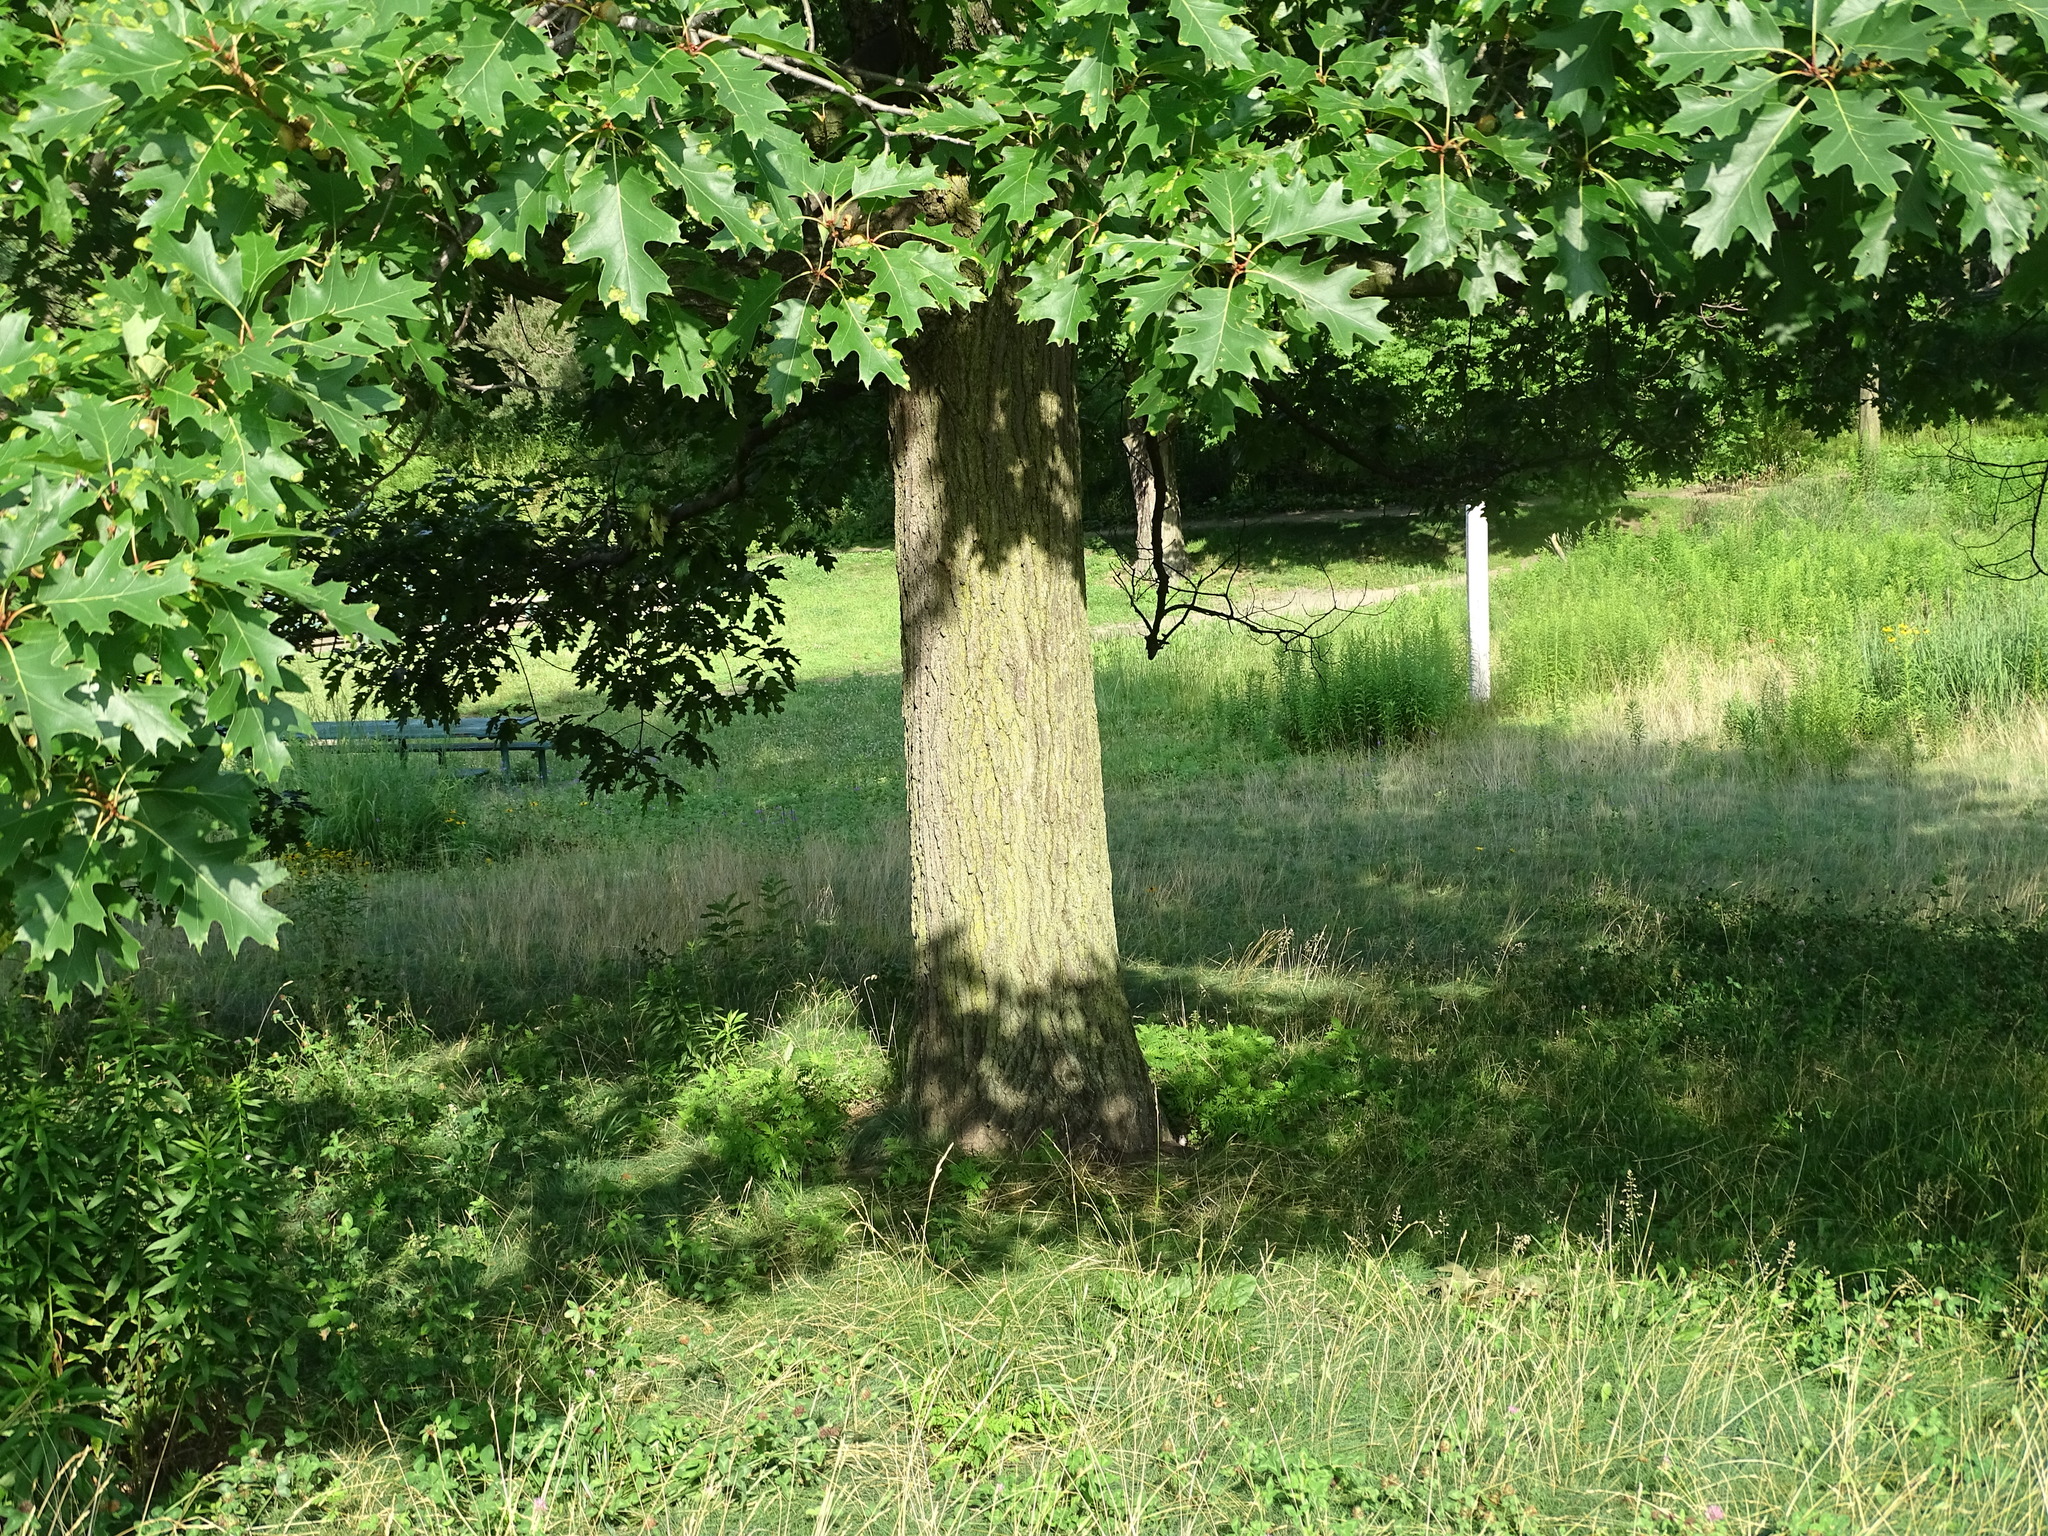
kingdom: Plantae
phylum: Tracheophyta
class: Magnoliopsida
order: Fagales
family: Fagaceae
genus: Quercus
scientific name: Quercus rubra
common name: Red oak
